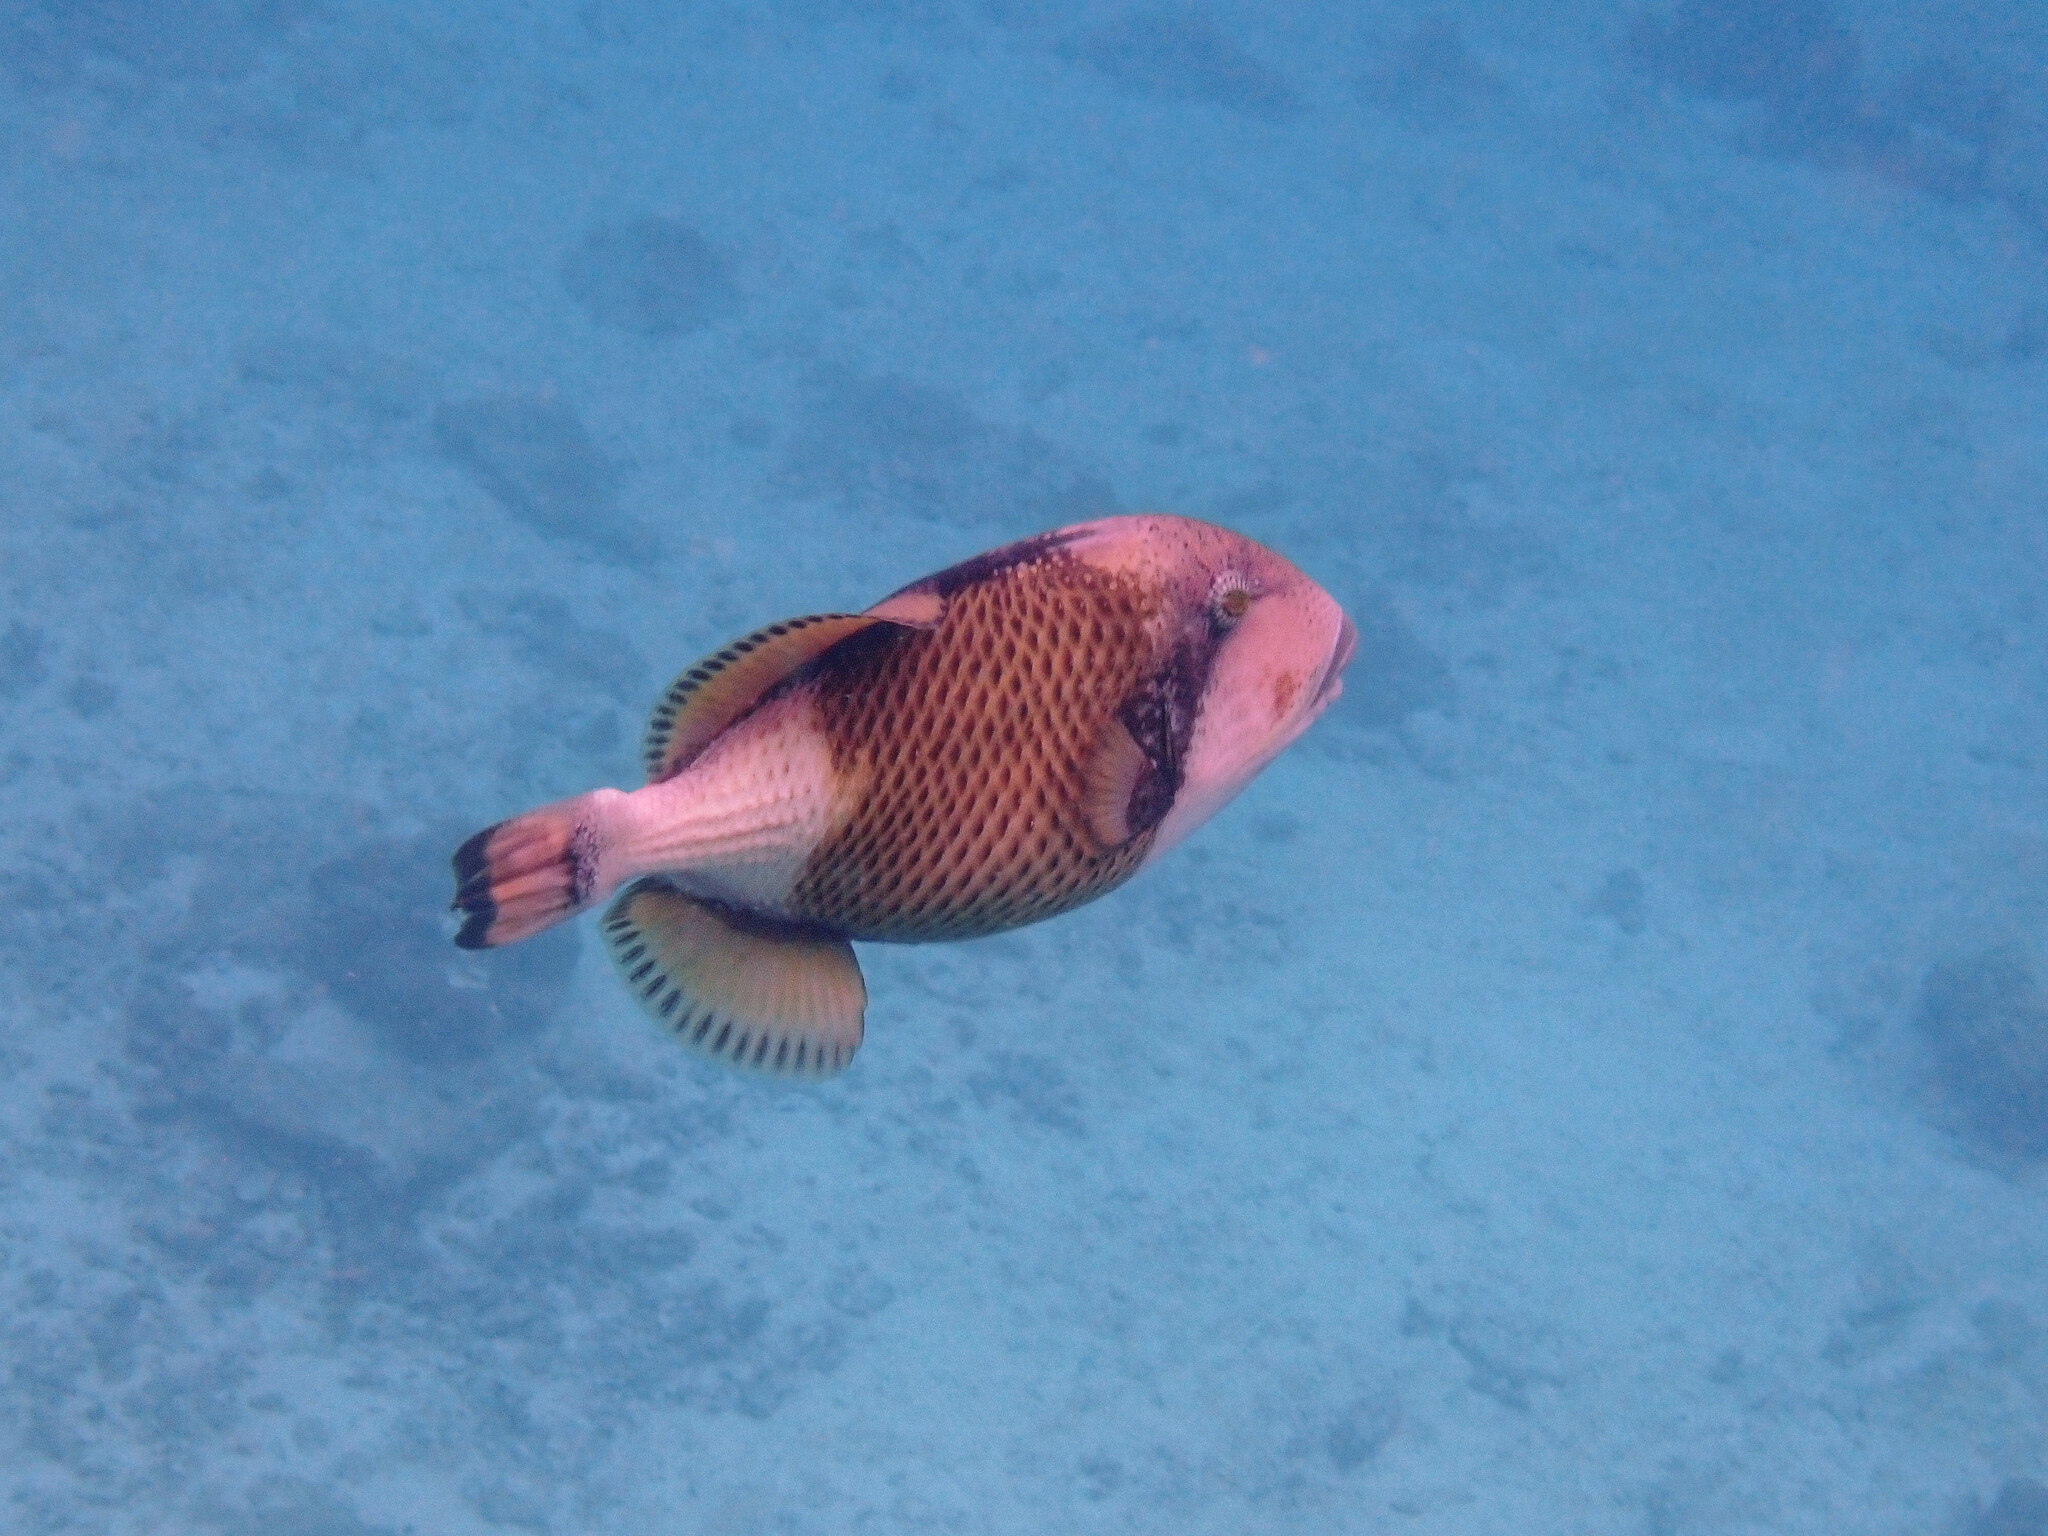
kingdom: Animalia
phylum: Chordata
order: Tetraodontiformes
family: Balistidae
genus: Balistoides
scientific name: Balistoides viridescens
